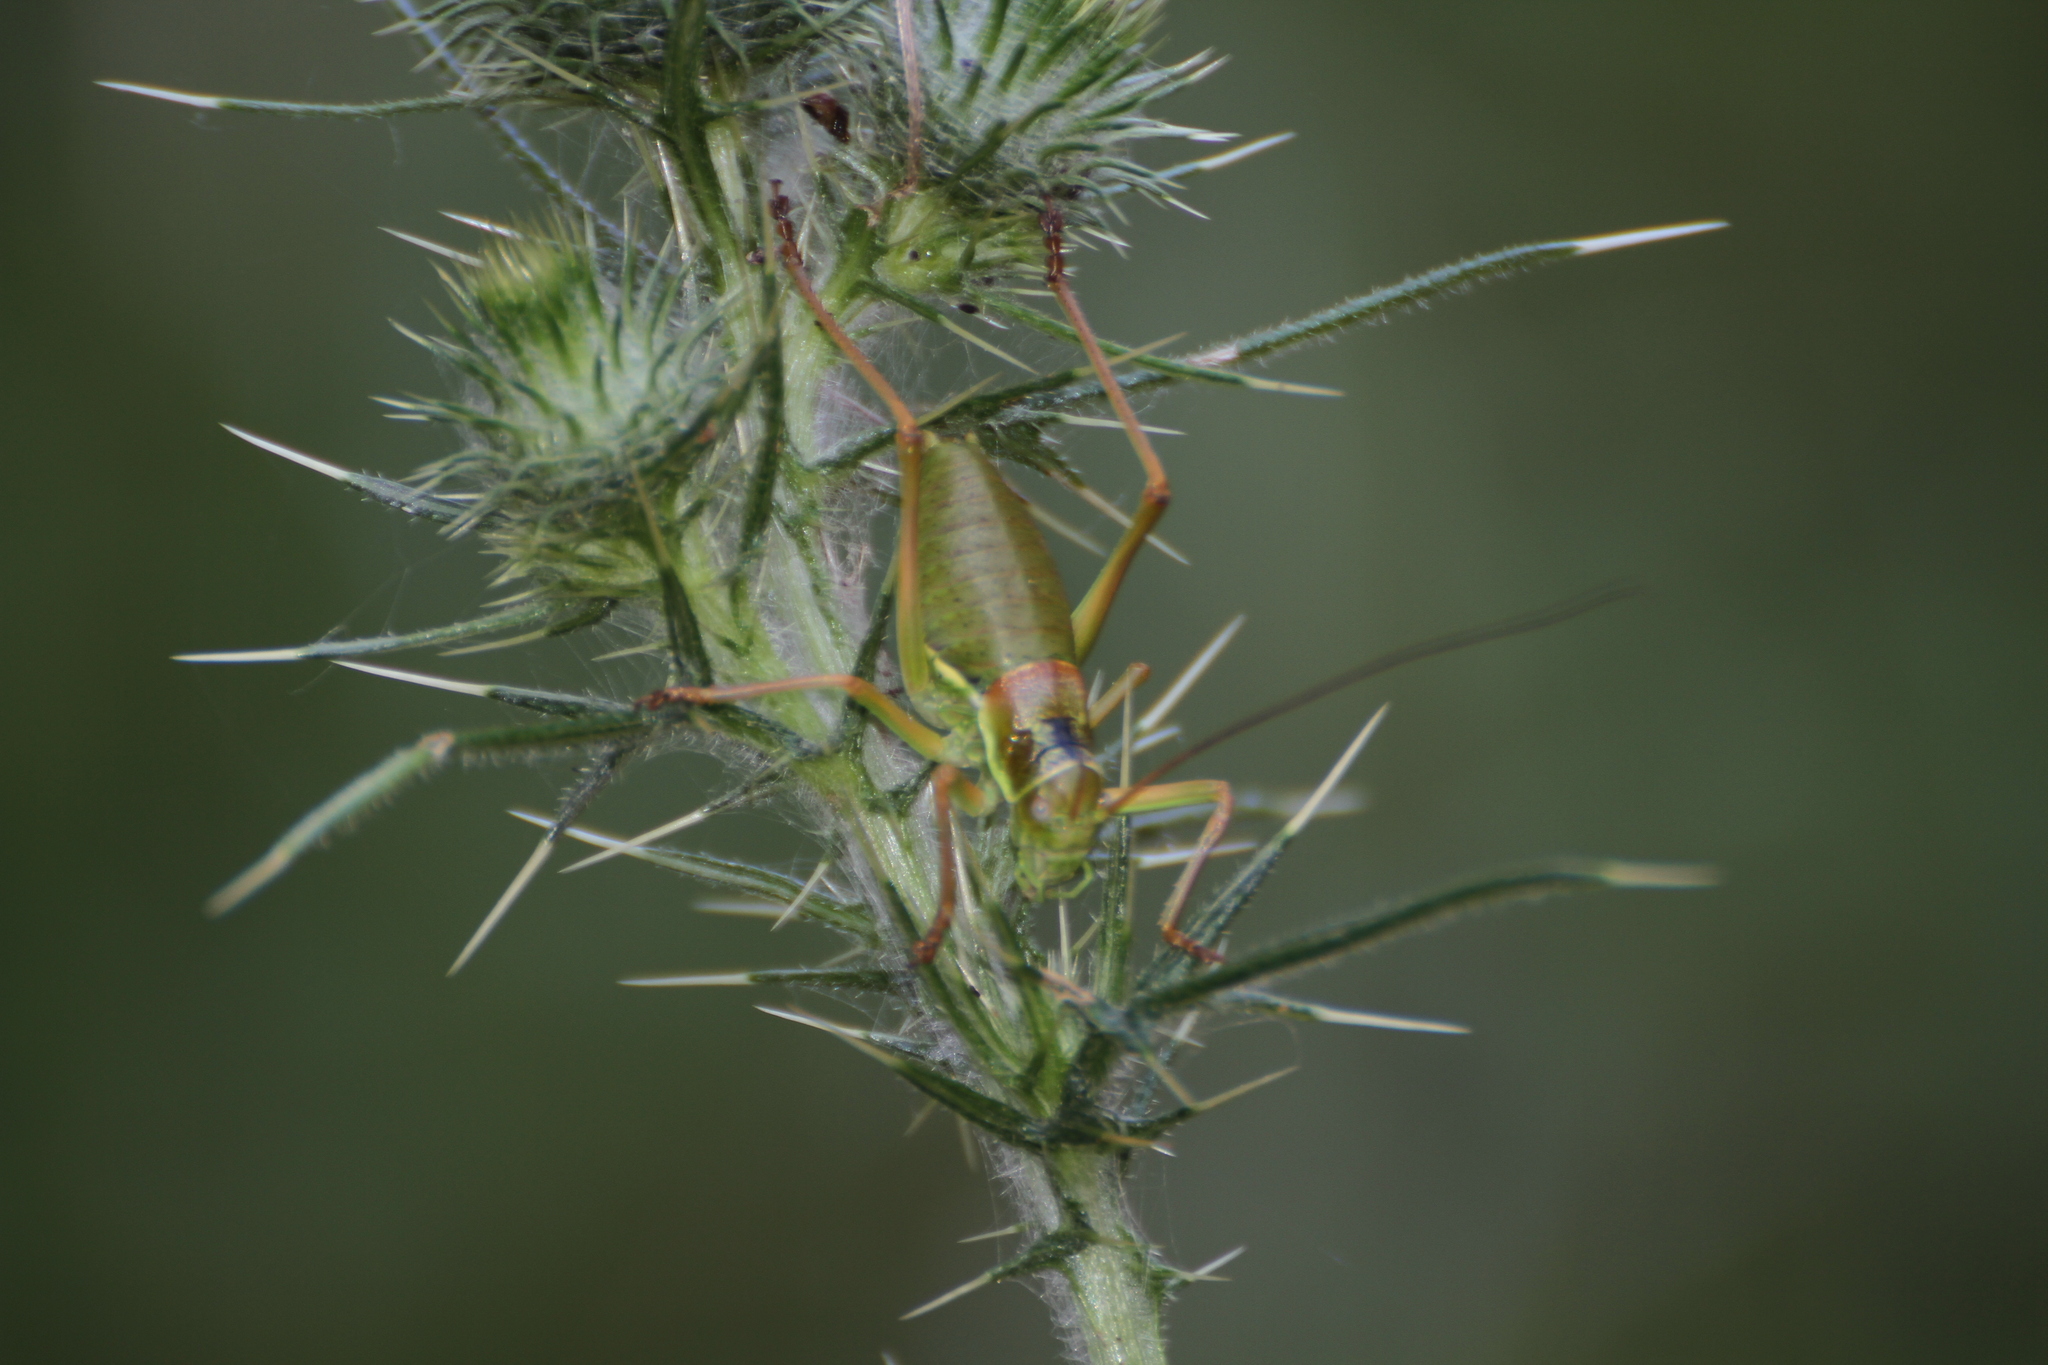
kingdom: Animalia
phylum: Arthropoda
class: Insecta
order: Orthoptera
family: Tettigoniidae
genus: Ephippiger
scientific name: Ephippiger diurnus
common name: Western saddle bush-cricket
